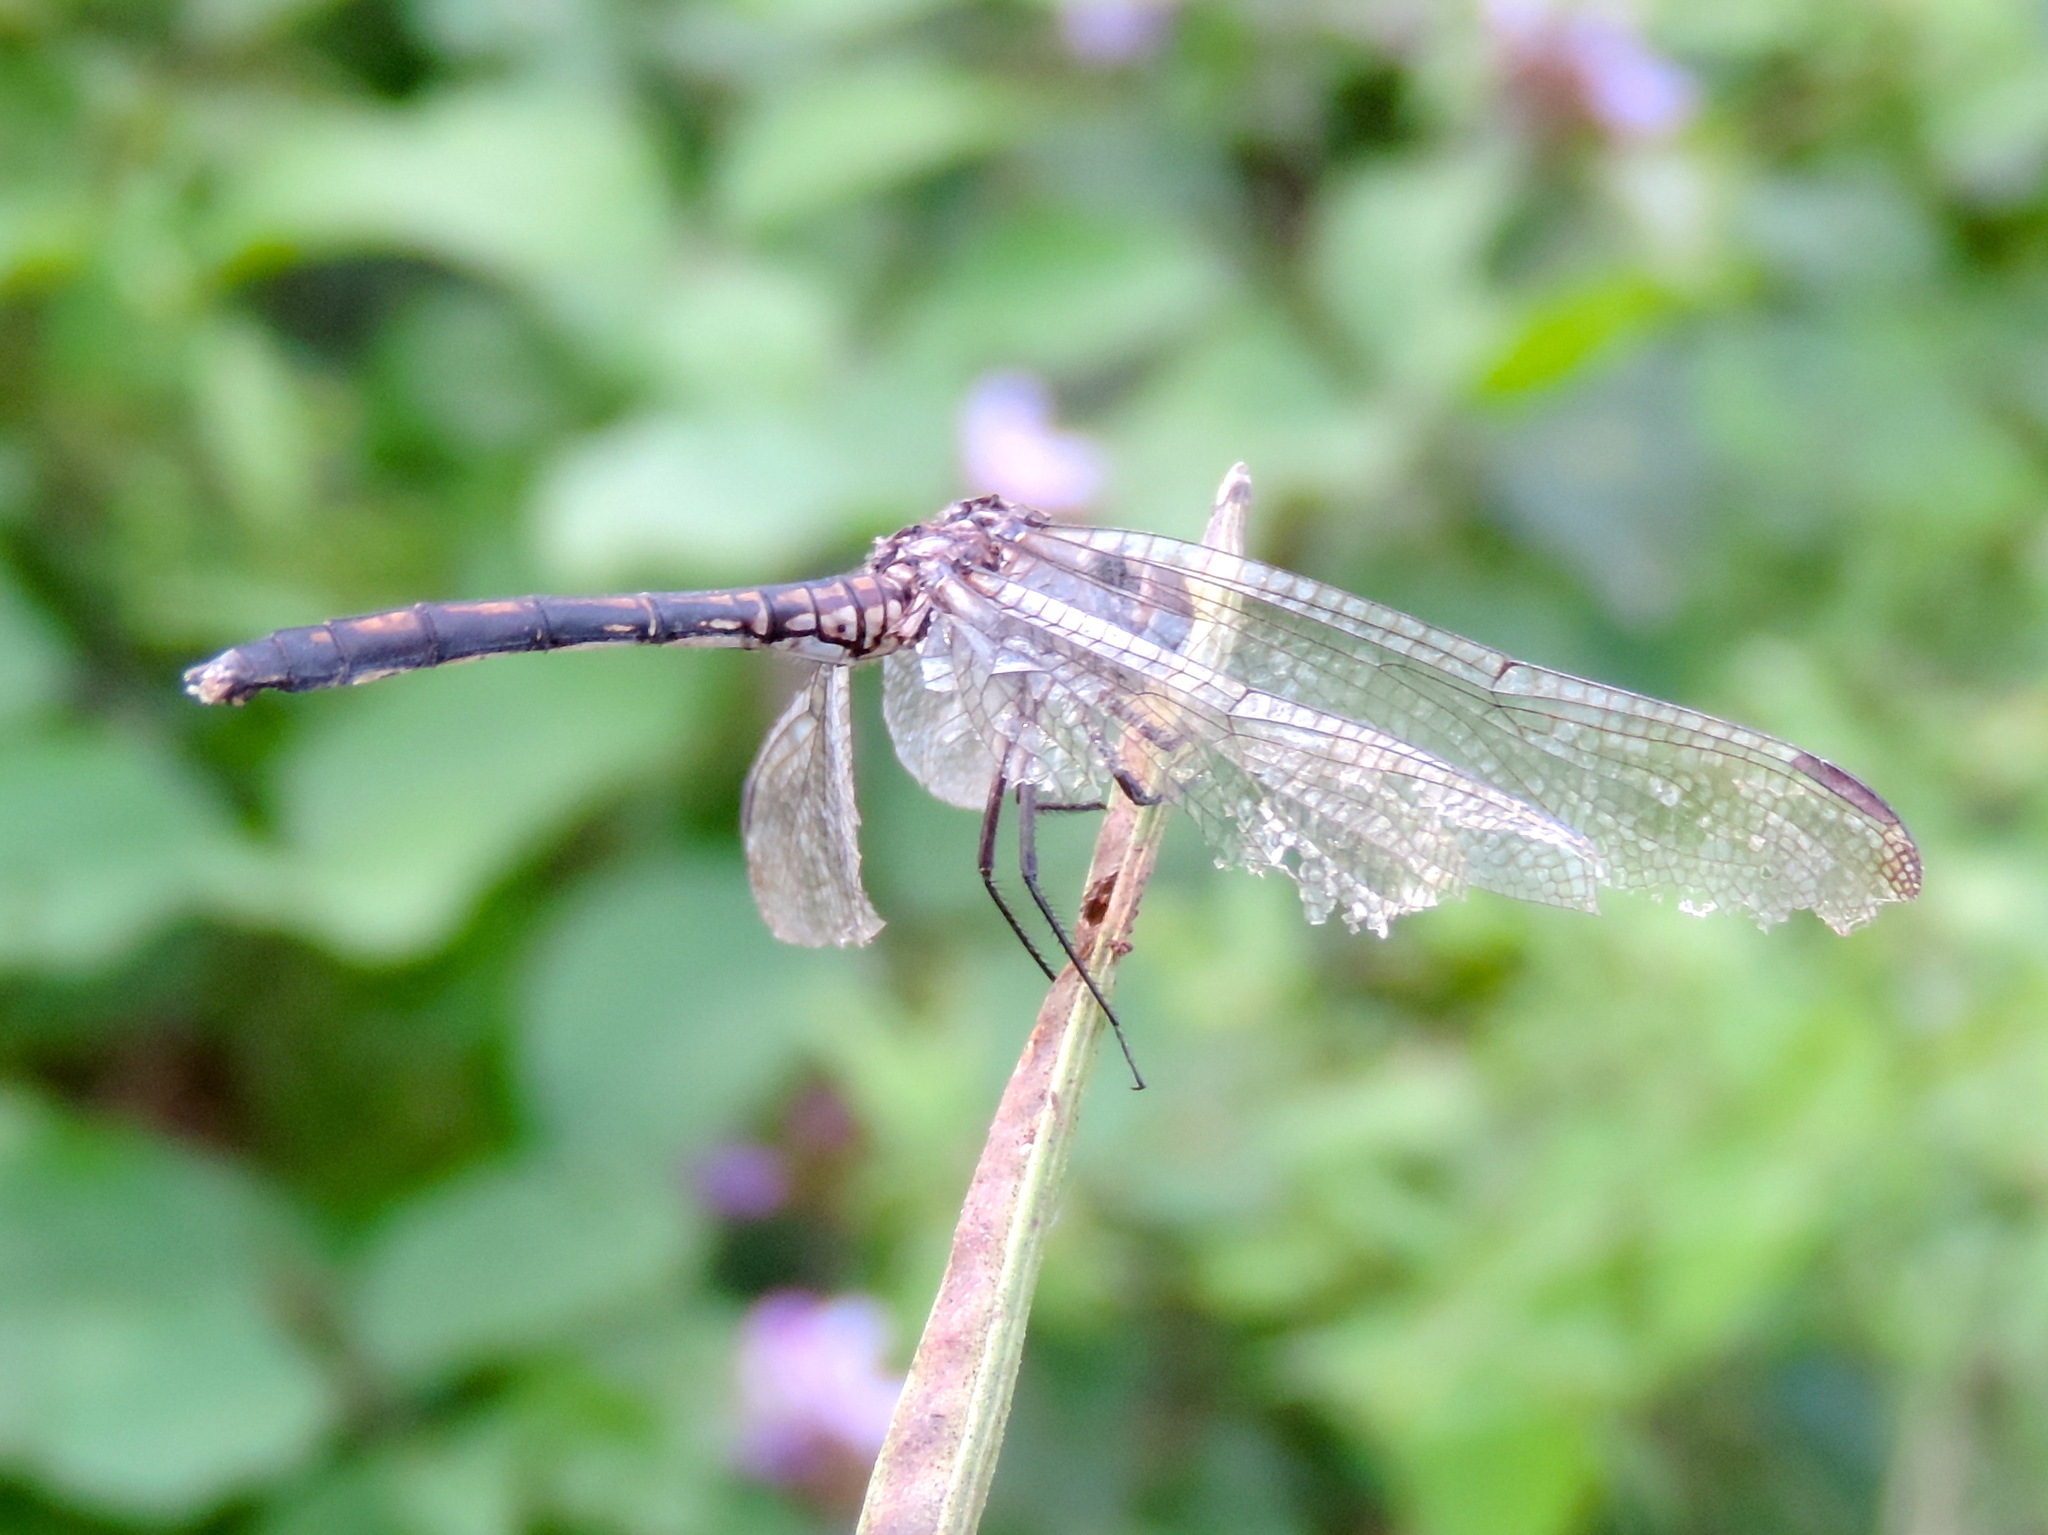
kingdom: Animalia
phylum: Arthropoda
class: Insecta
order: Odonata
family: Libellulidae
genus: Dythemis
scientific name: Dythemis
